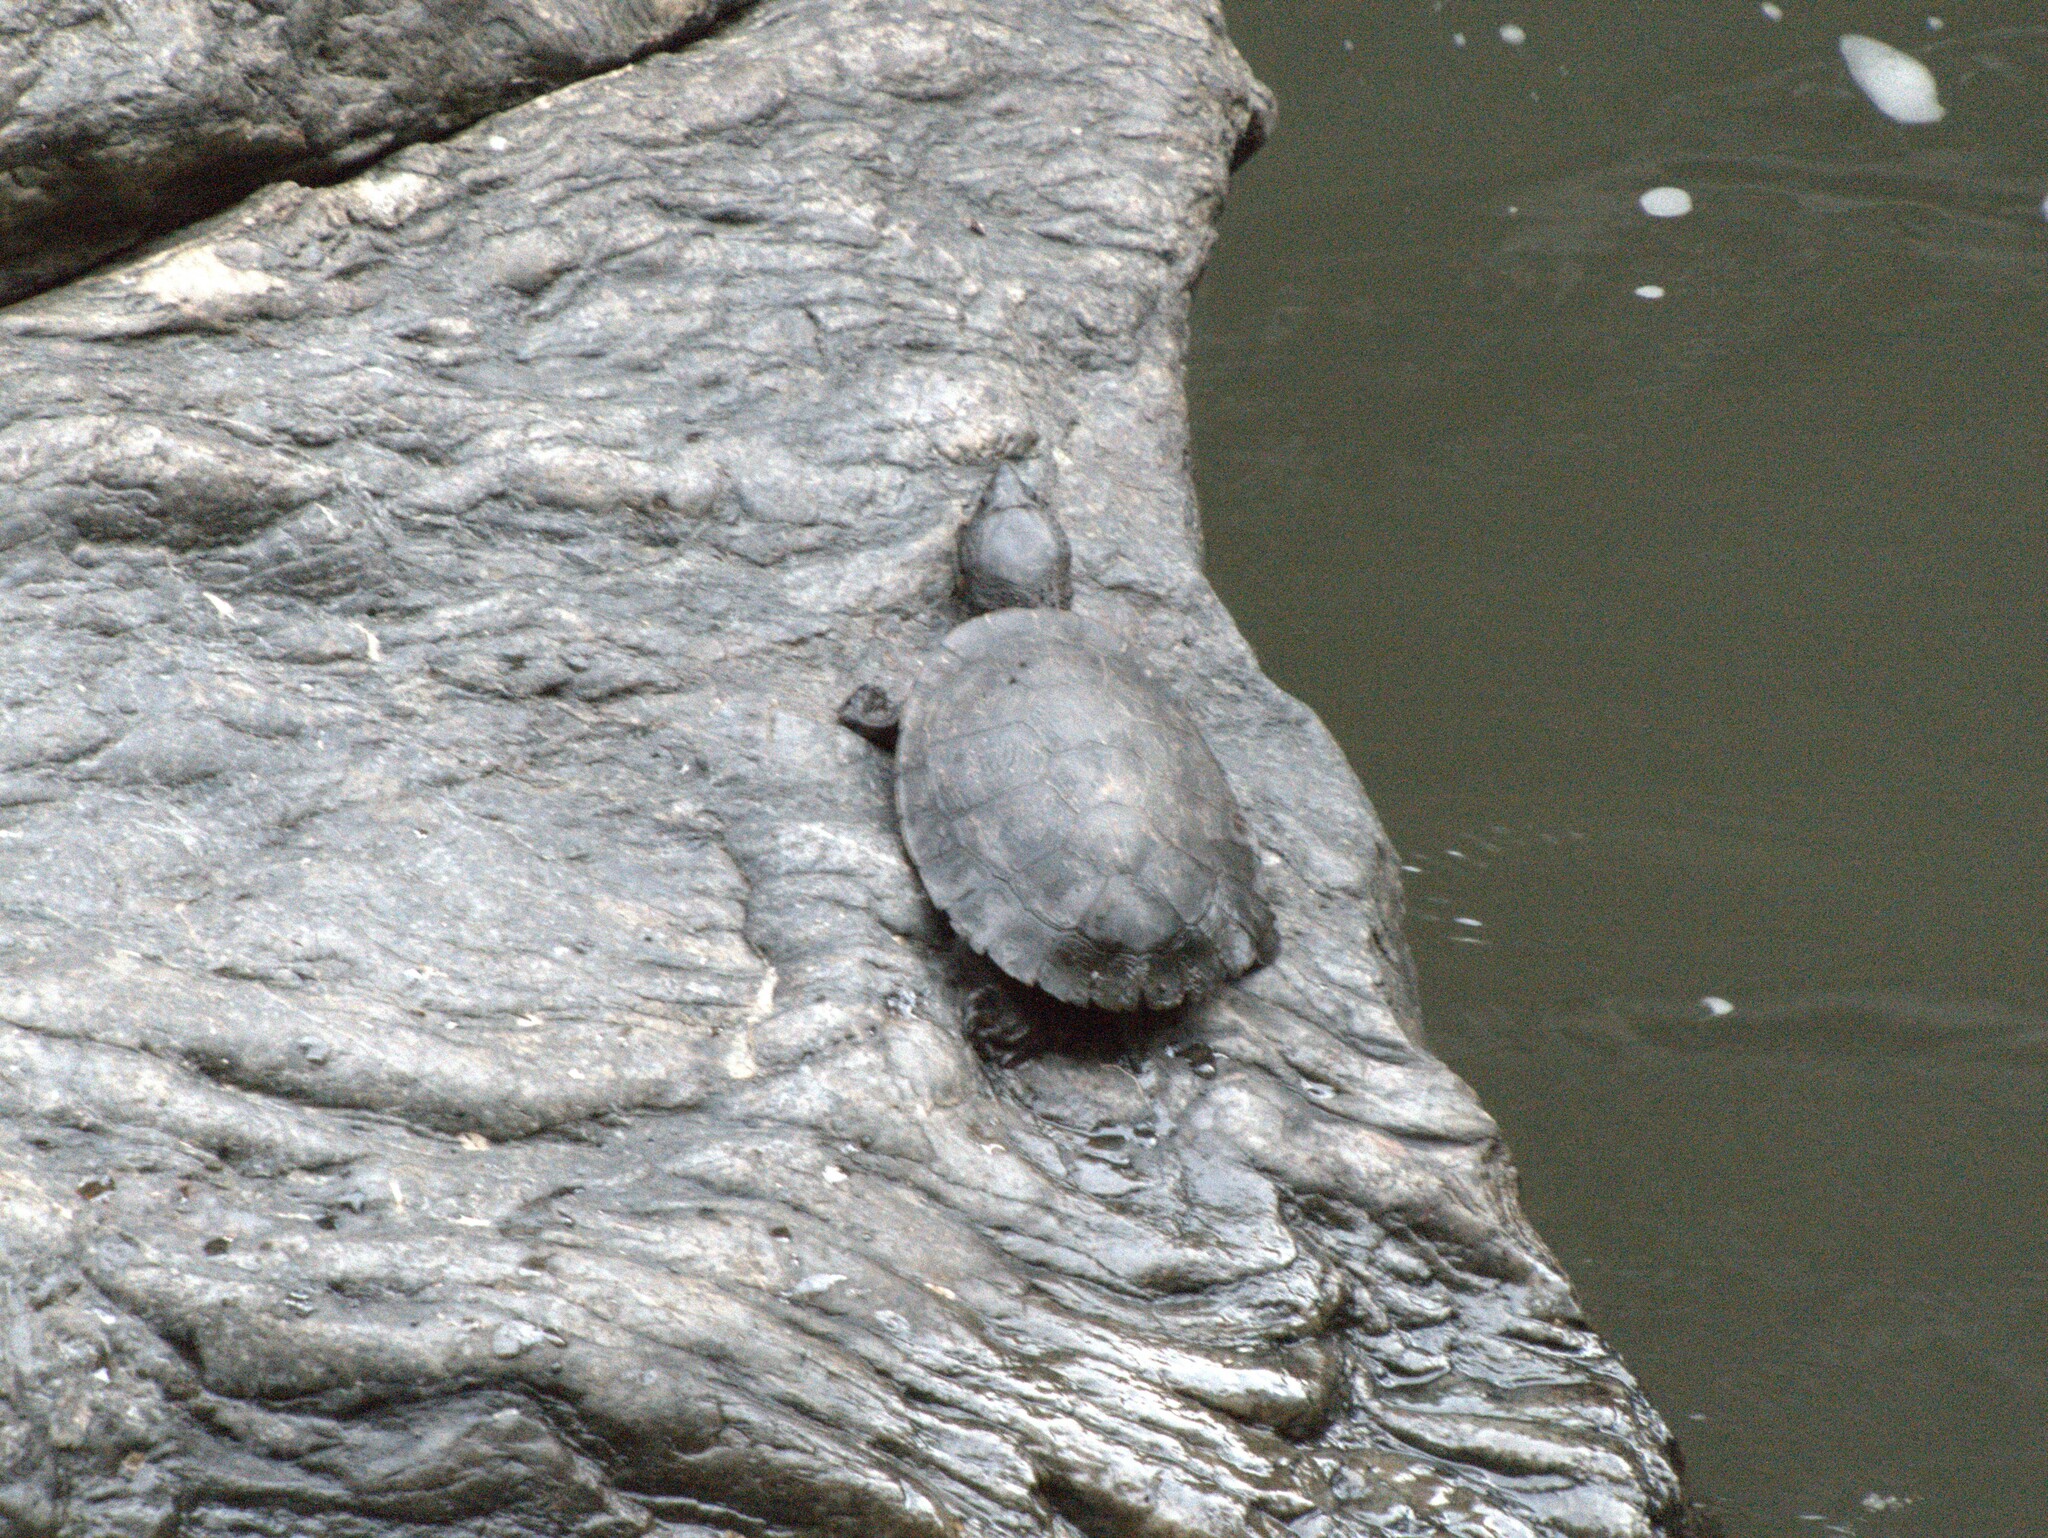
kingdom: Animalia
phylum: Chordata
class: Testudines
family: Chelidae
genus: Myuchelys
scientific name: Myuchelys latisternum
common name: Serrated snapping turtle
